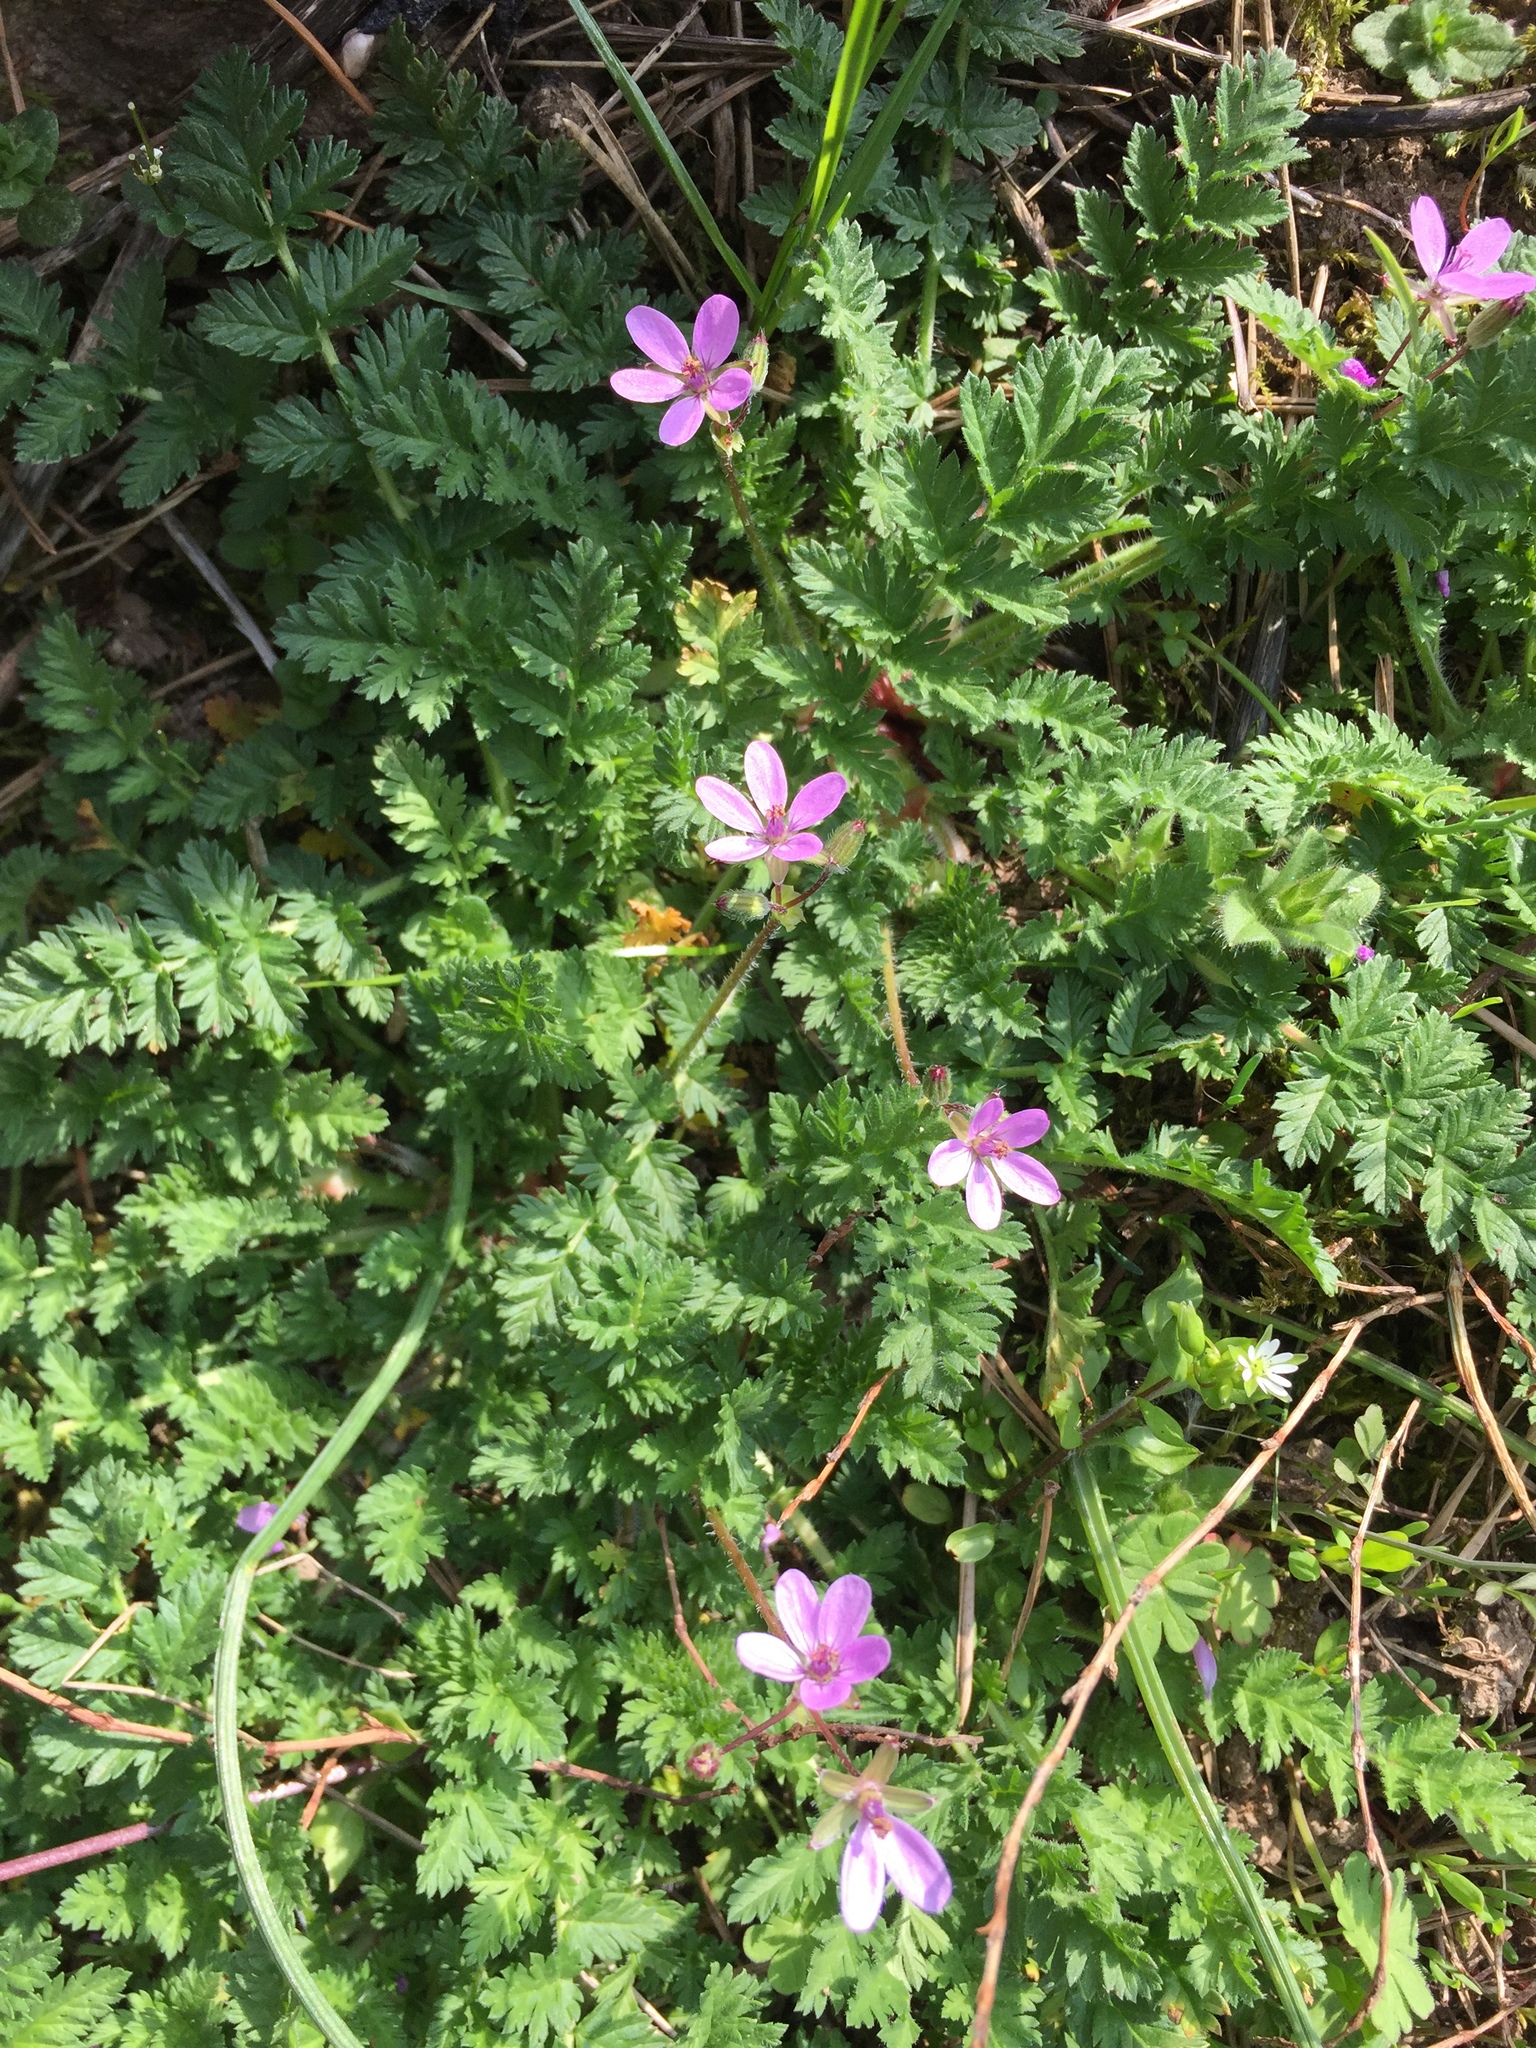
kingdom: Plantae
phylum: Tracheophyta
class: Magnoliopsida
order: Geraniales
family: Geraniaceae
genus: Erodium
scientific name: Erodium cicutarium
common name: Common stork's-bill
